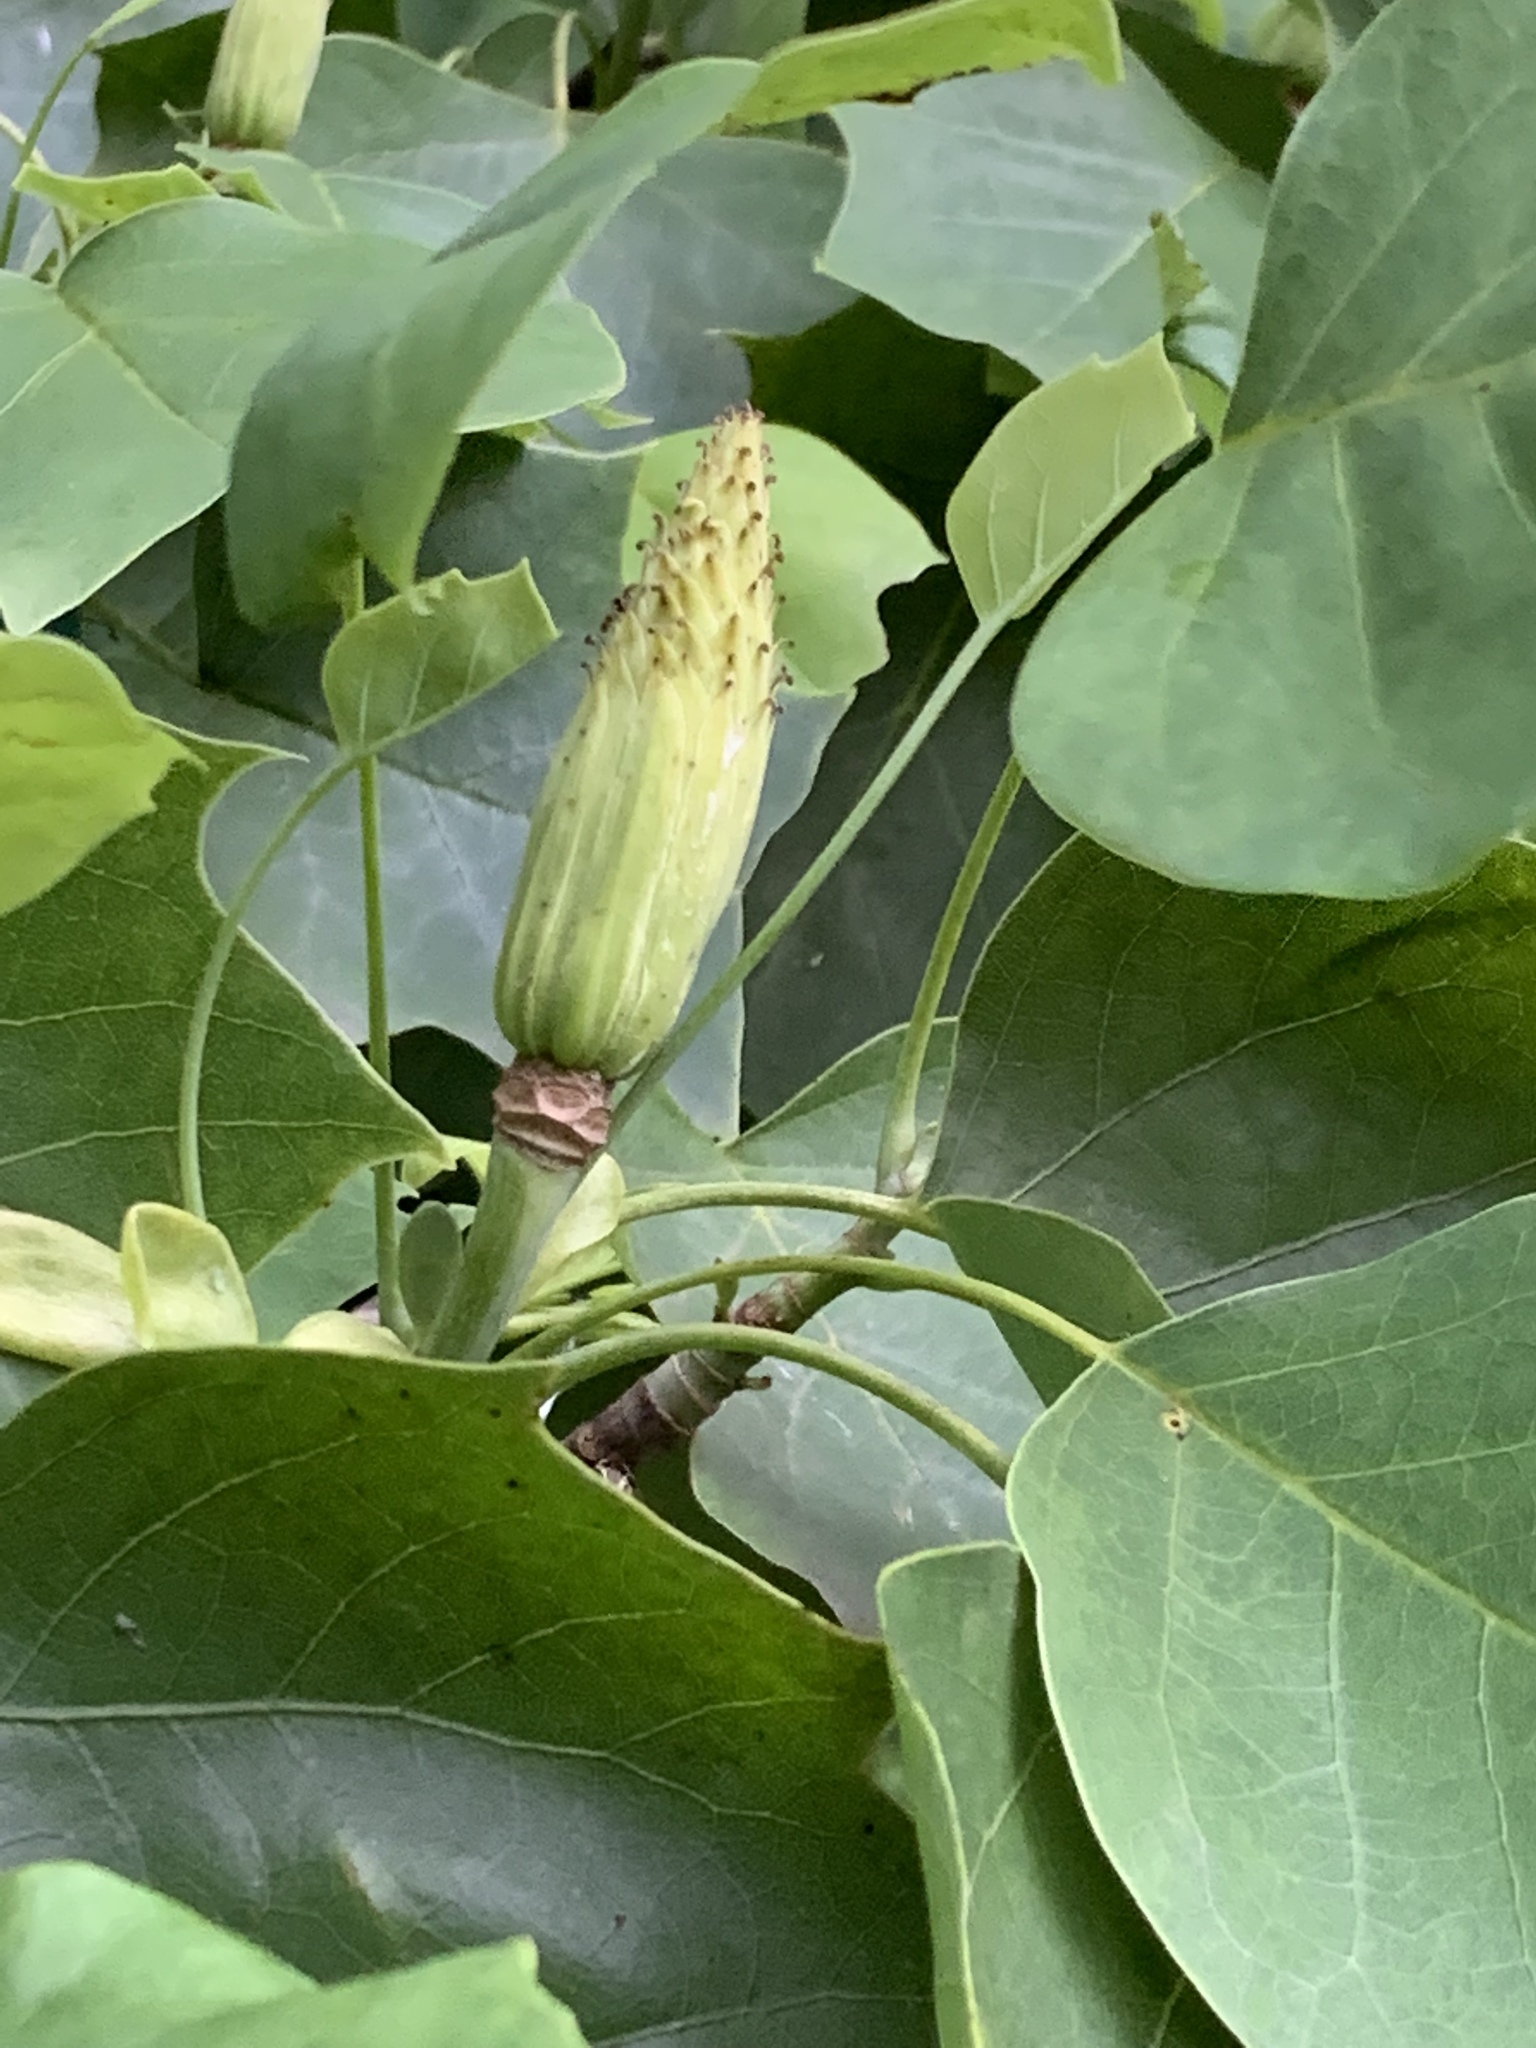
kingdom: Plantae
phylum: Tracheophyta
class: Magnoliopsida
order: Magnoliales
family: Magnoliaceae
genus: Liriodendron
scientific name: Liriodendron tulipifera
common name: Tulip tree
